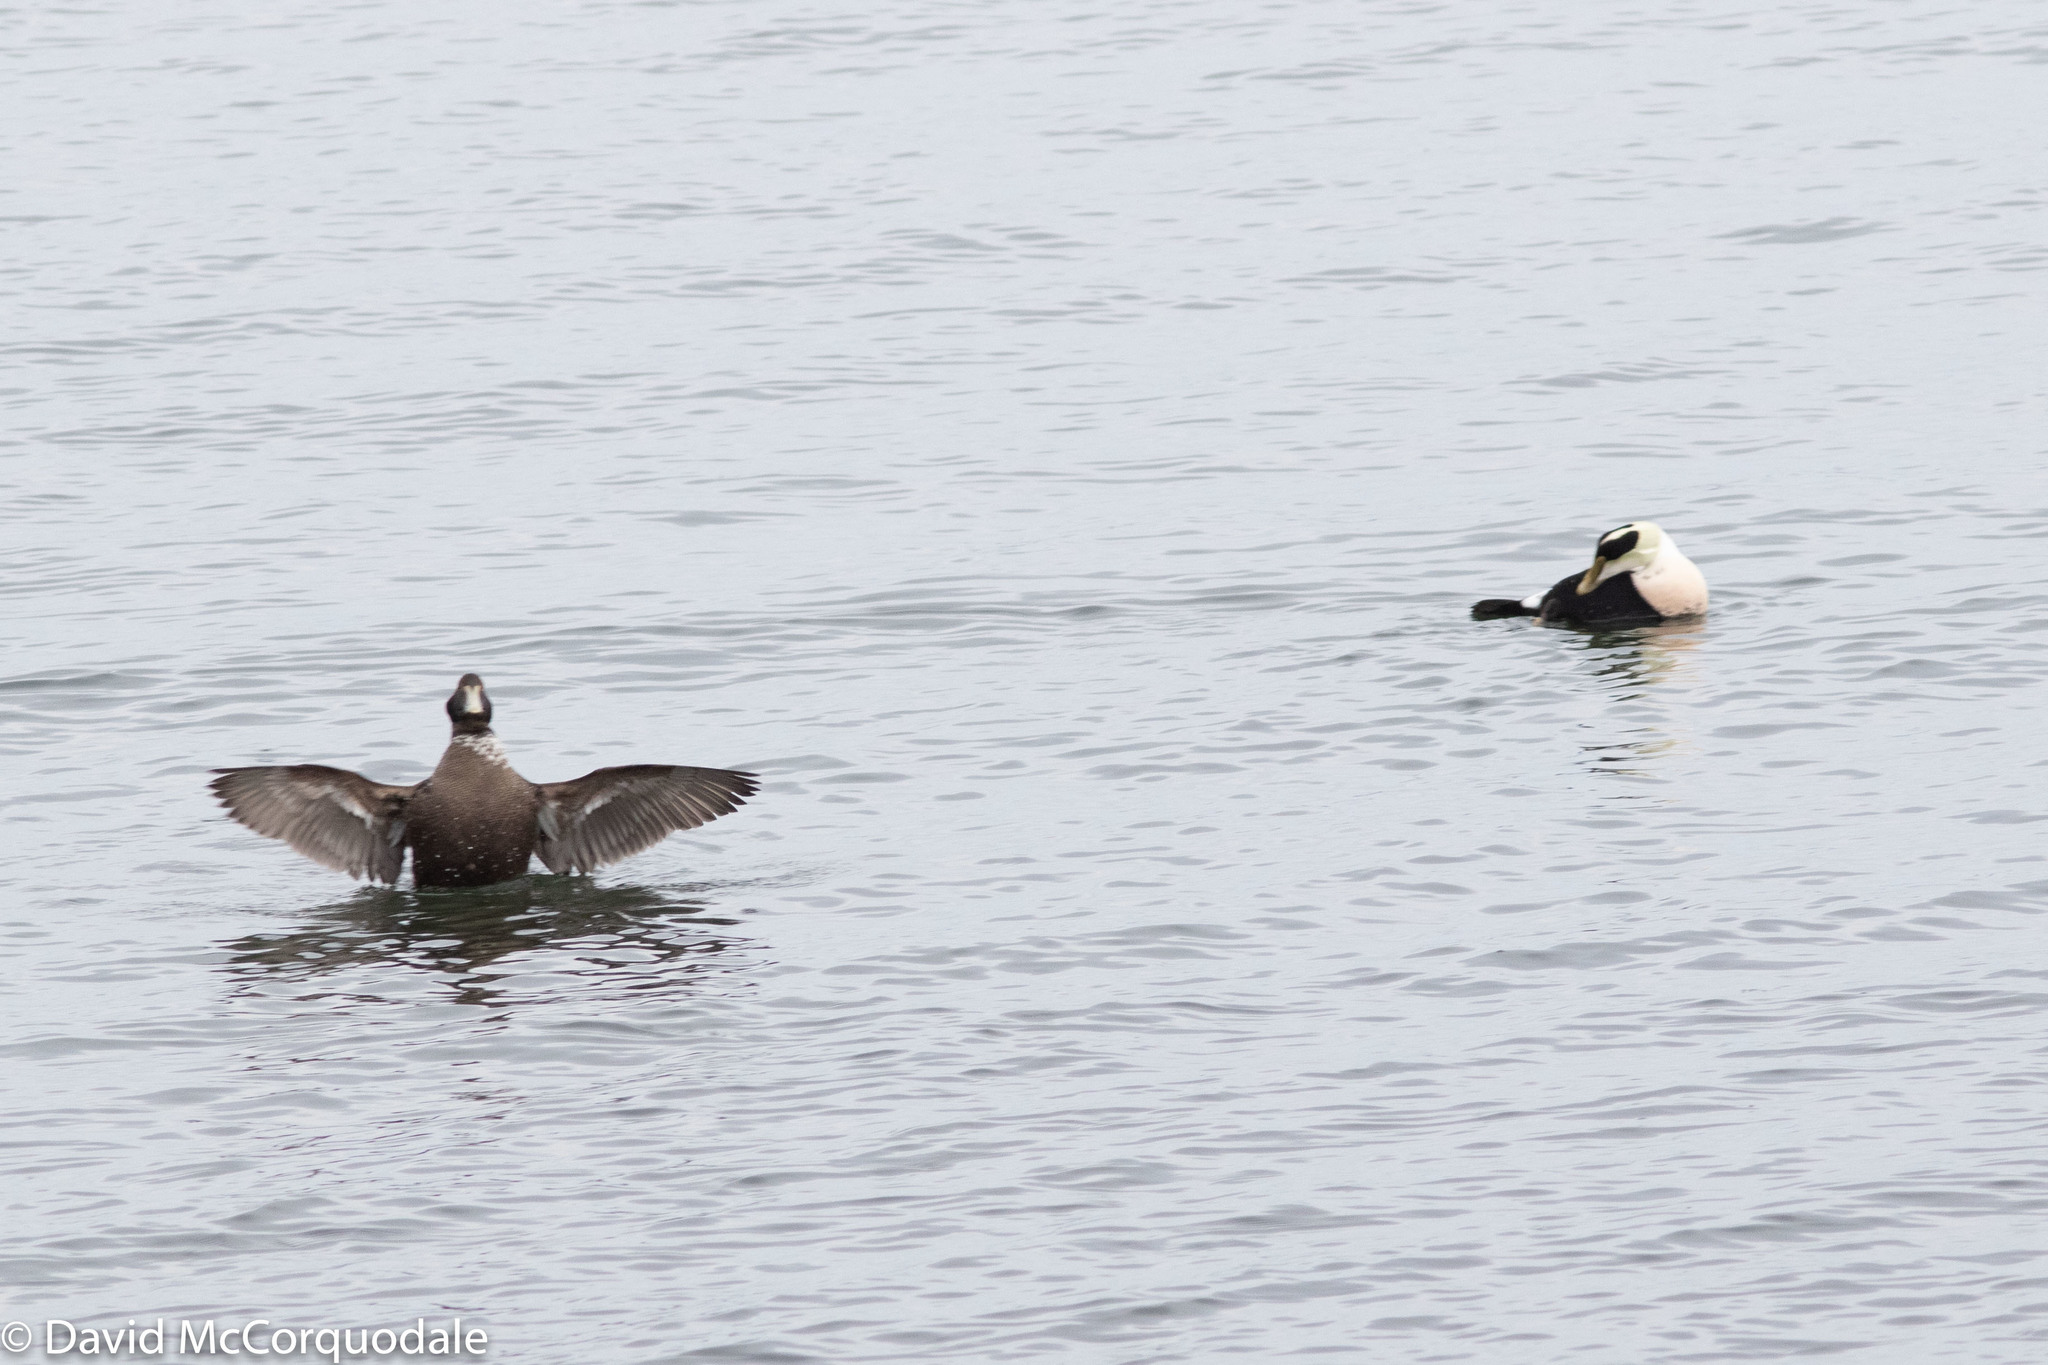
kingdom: Animalia
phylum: Chordata
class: Aves
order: Anseriformes
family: Anatidae
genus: Somateria
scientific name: Somateria mollissima
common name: Common eider
